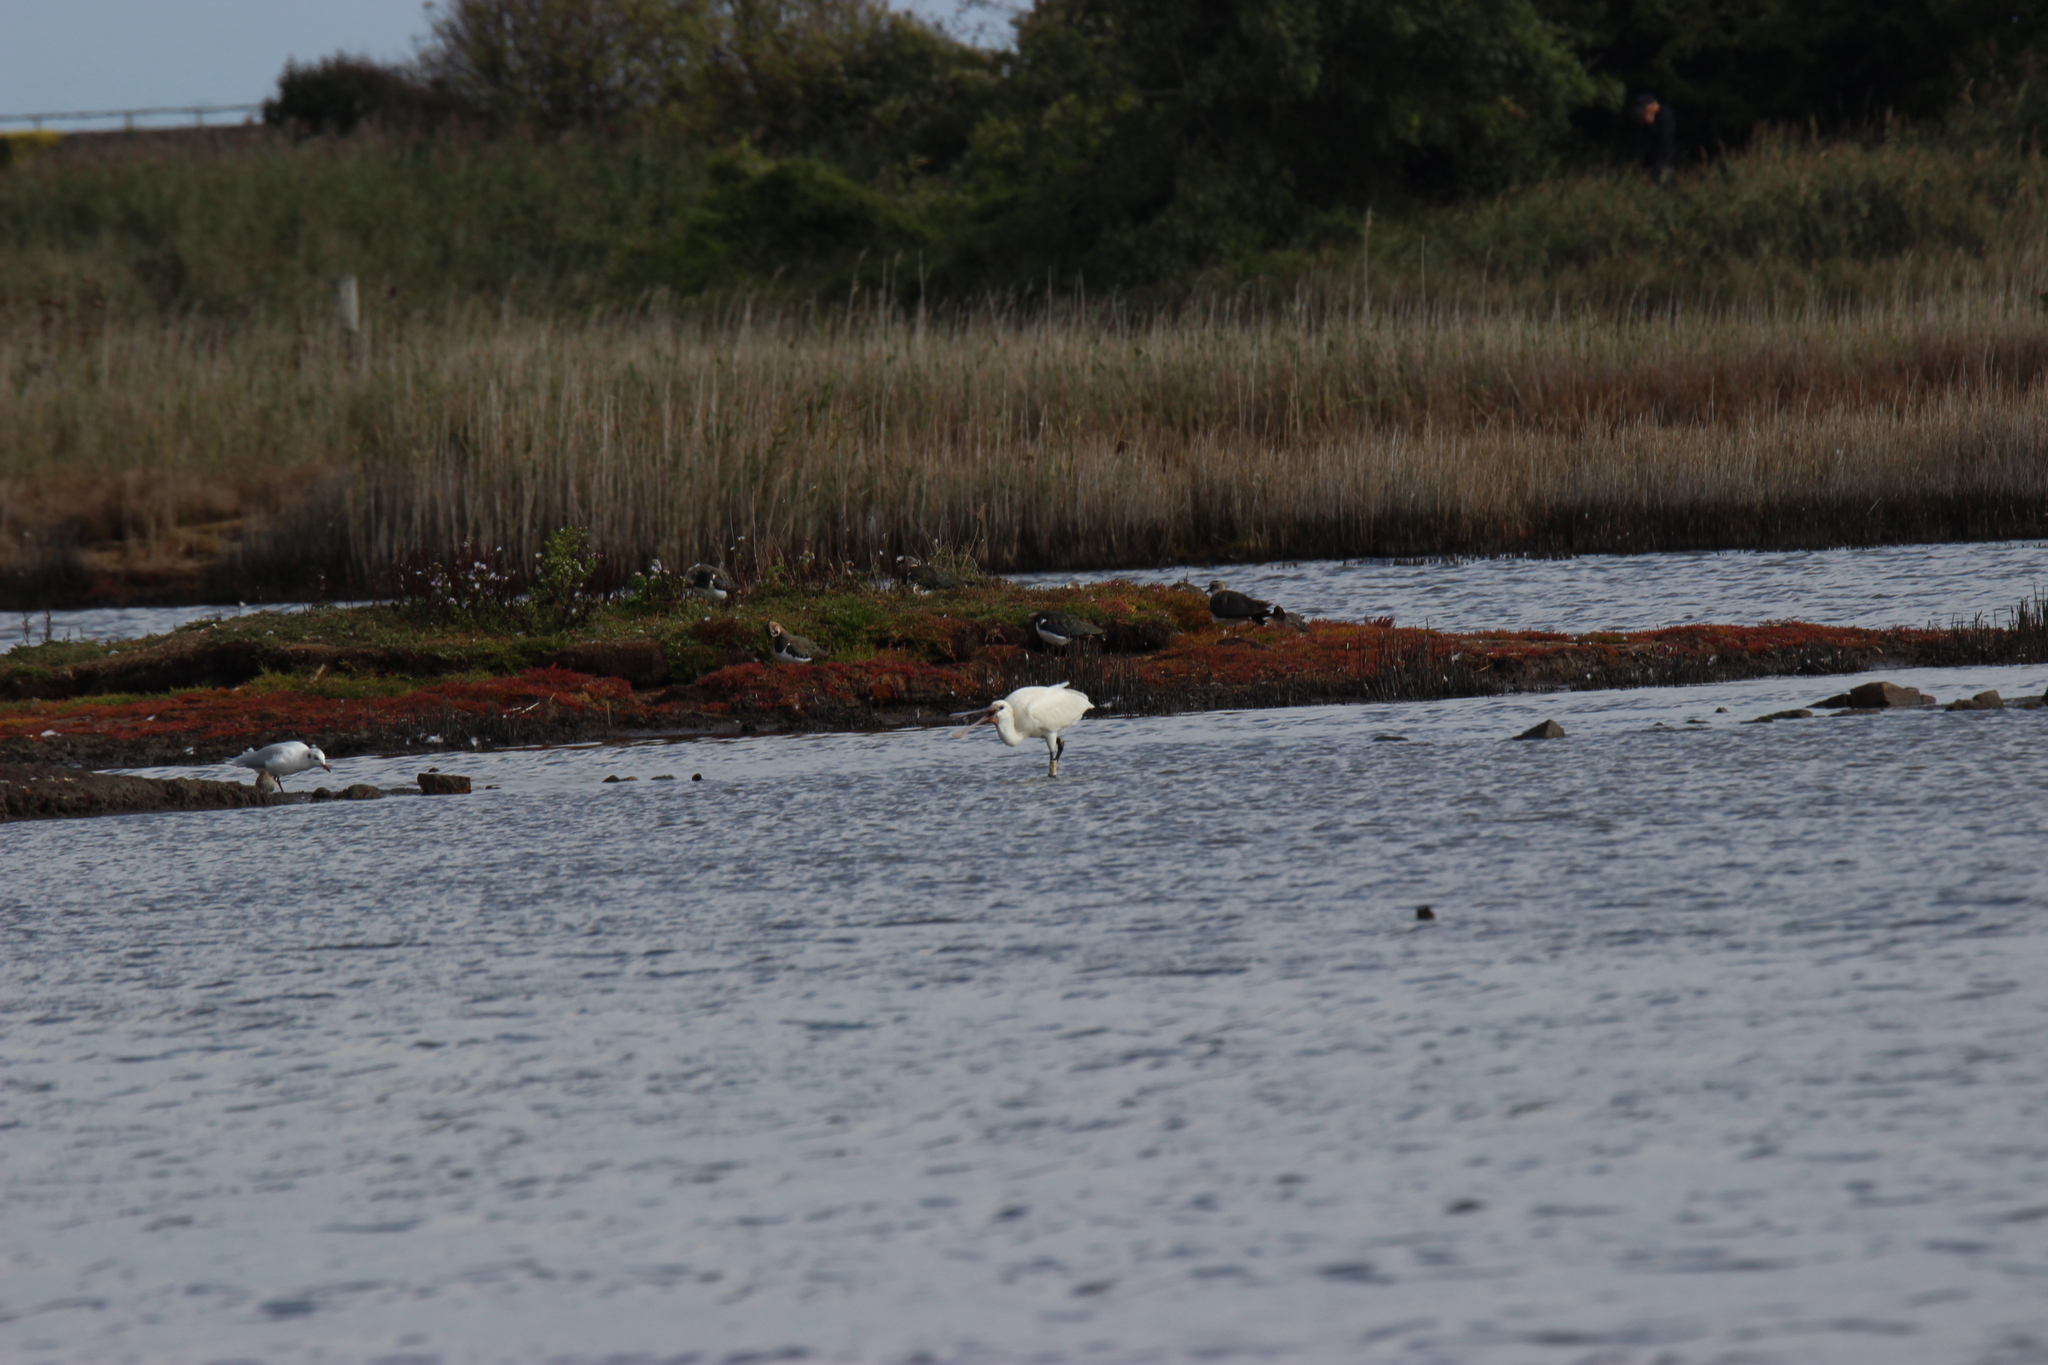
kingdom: Animalia
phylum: Chordata
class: Aves
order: Pelecaniformes
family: Threskiornithidae
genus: Platalea
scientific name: Platalea leucorodia
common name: Eurasian spoonbill
